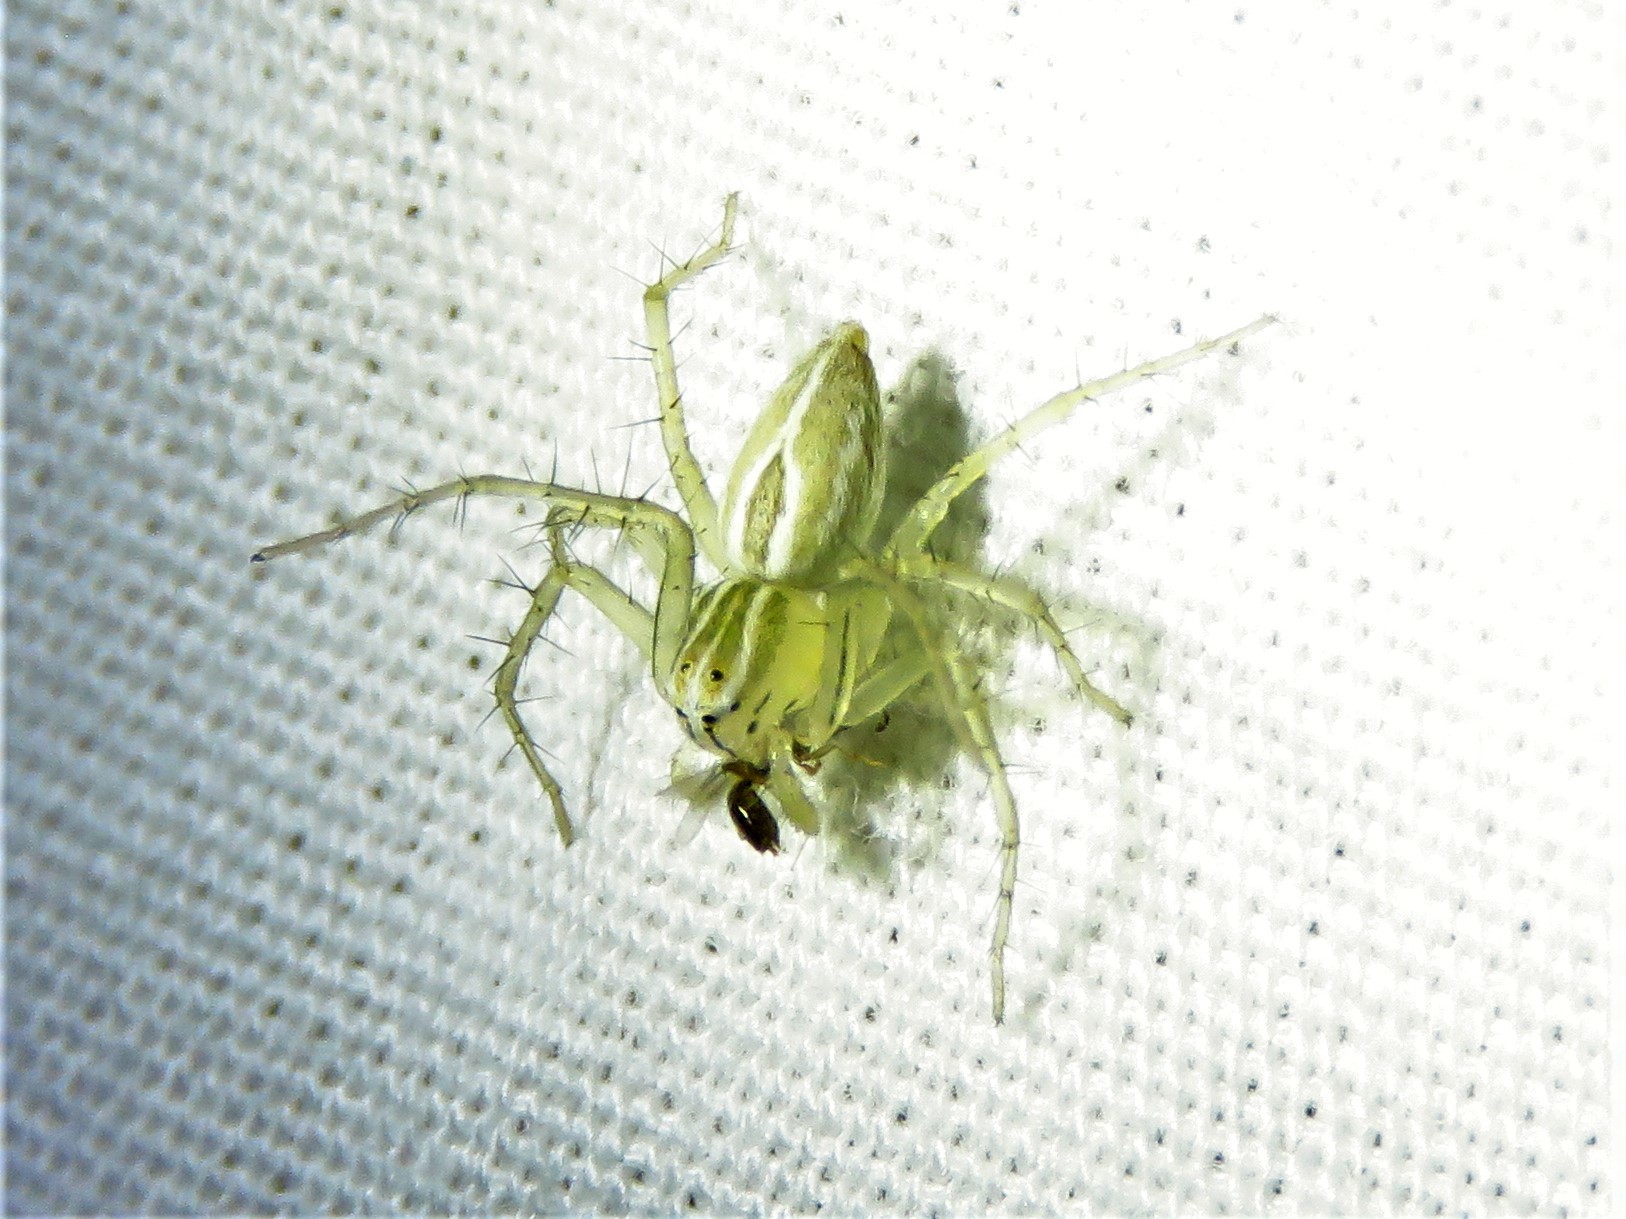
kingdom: Animalia
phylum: Arthropoda
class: Arachnida
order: Araneae
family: Oxyopidae
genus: Oxyopes
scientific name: Oxyopes salticus
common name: Lynx spiders
